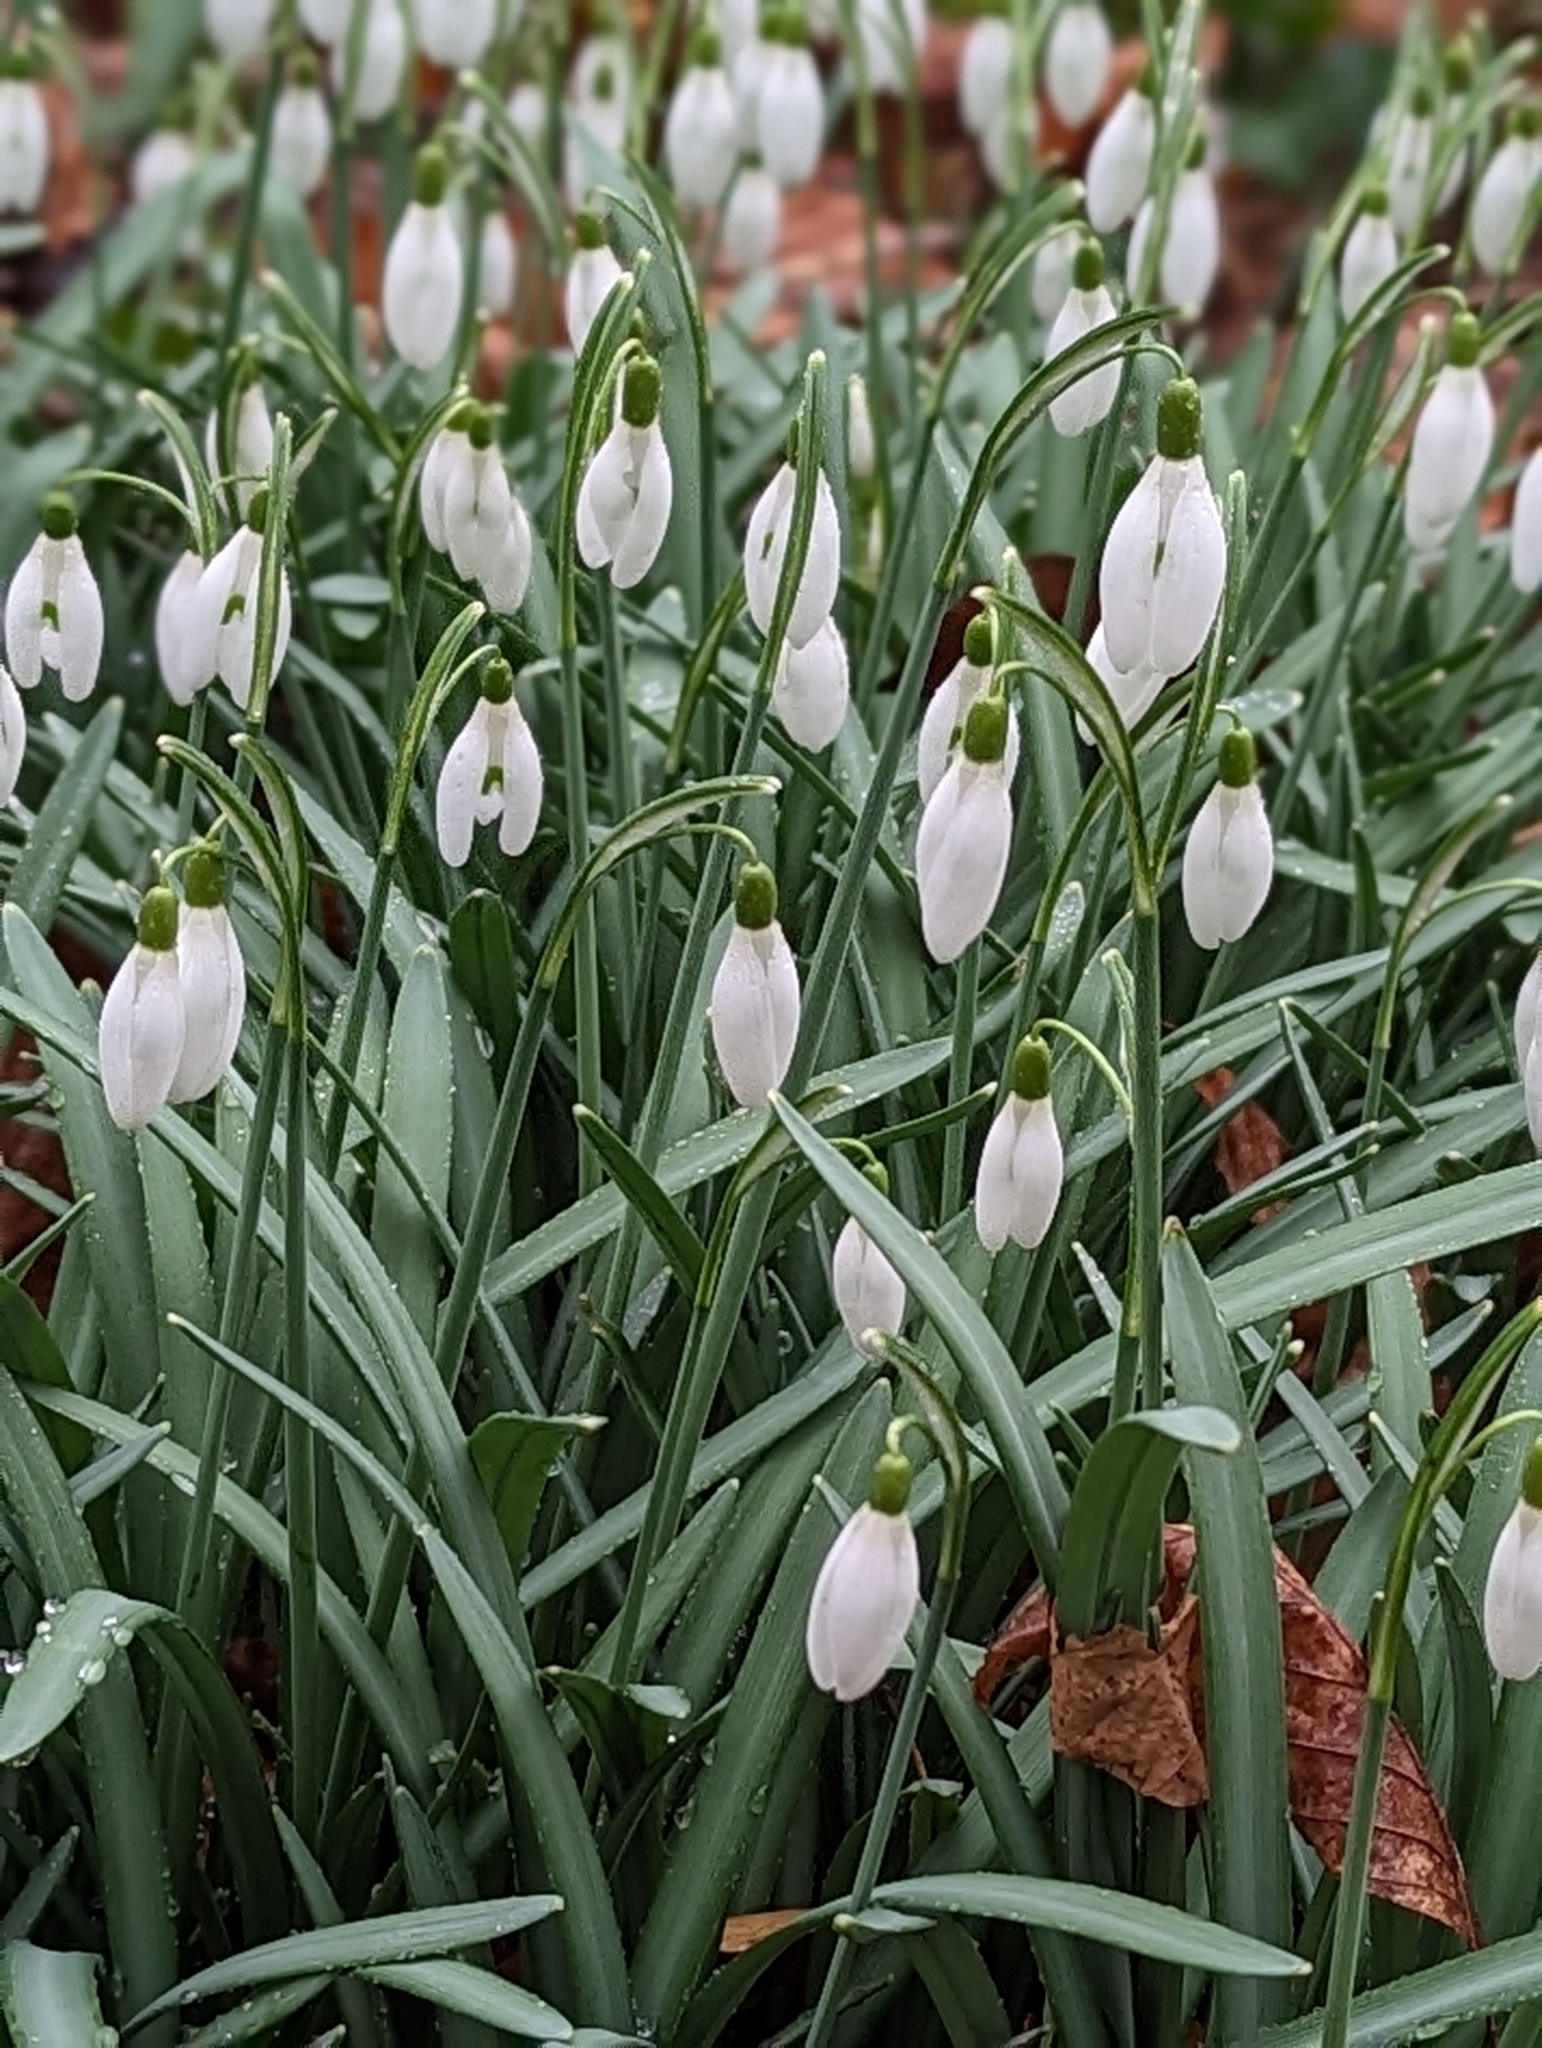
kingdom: Plantae
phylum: Tracheophyta
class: Liliopsida
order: Asparagales
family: Amaryllidaceae
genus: Galanthus
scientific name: Galanthus nivalis
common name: Snowdrop
